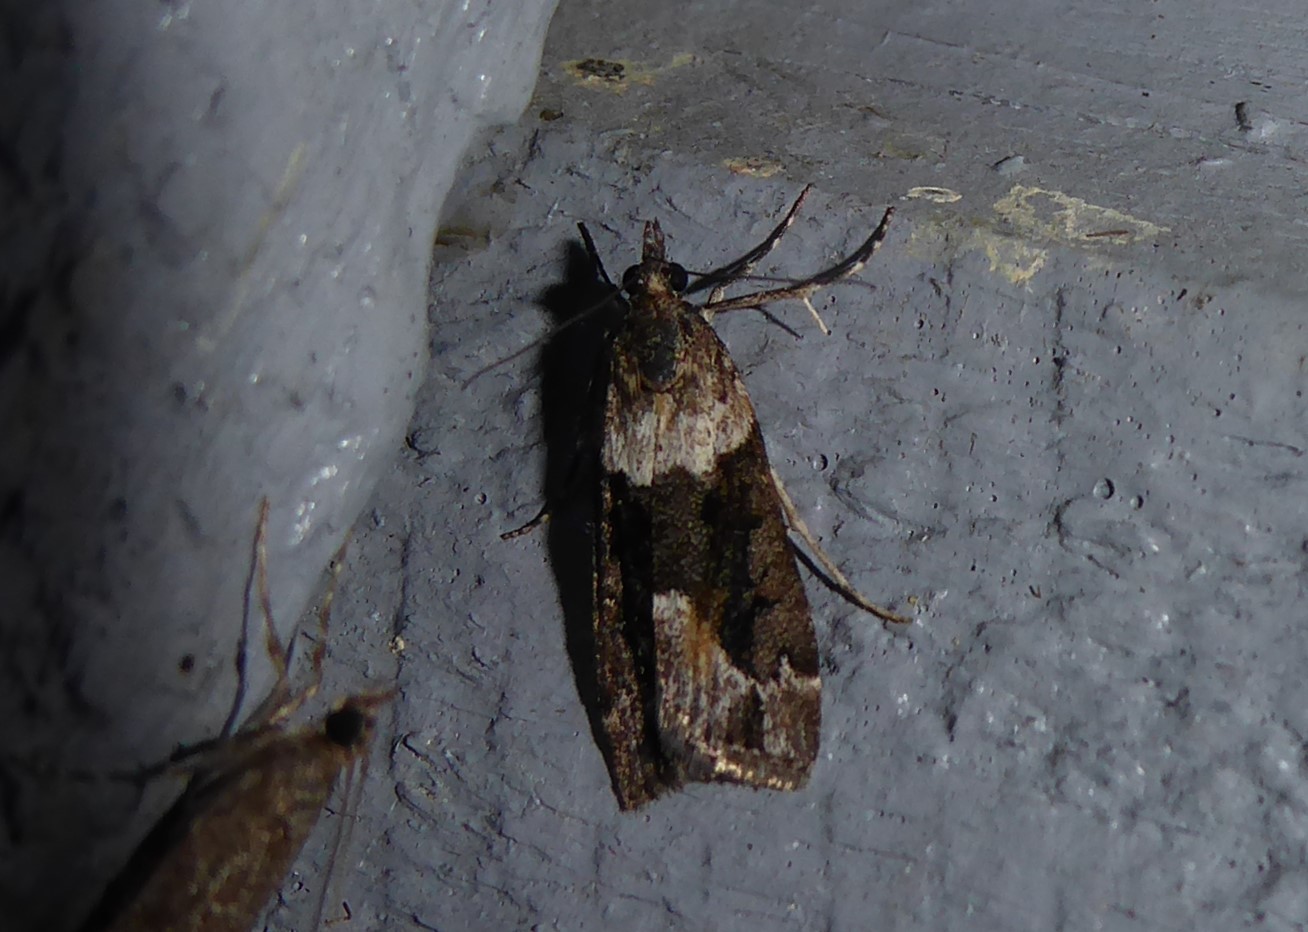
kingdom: Animalia
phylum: Arthropoda
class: Insecta
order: Lepidoptera
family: Crambidae
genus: Eudonia
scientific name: Eudonia submarginalis
